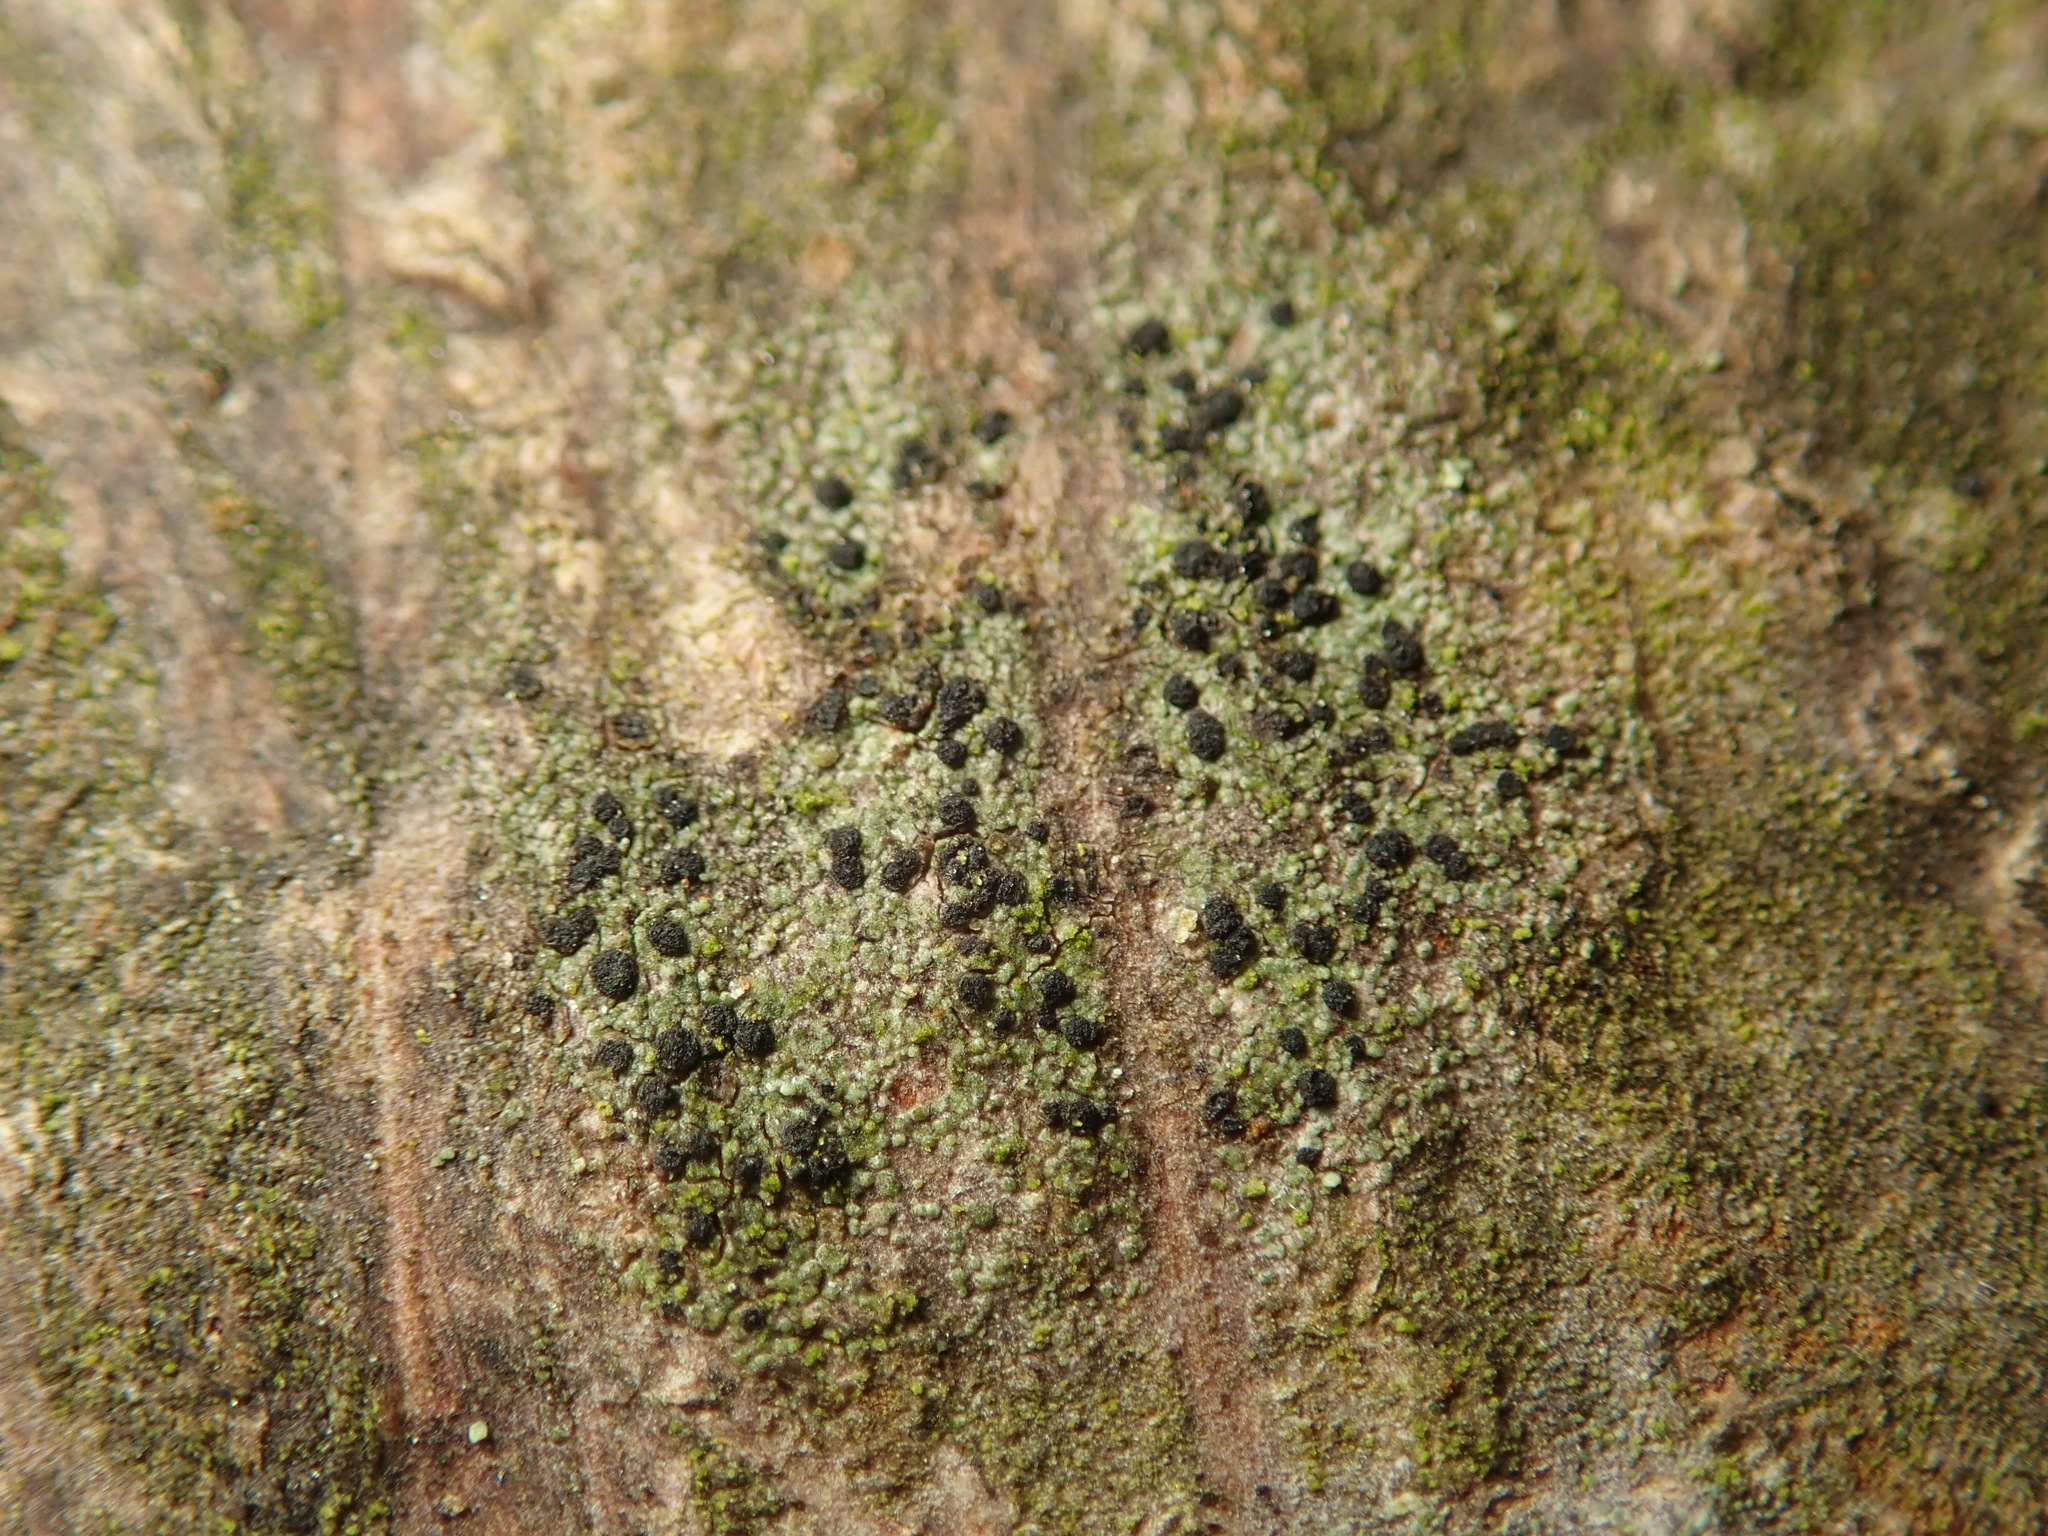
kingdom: Fungi
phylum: Ascomycota
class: Lecanoromycetes
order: Lecanorales
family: Lecanoraceae
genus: Lecidella
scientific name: Lecidella elaeochroma
